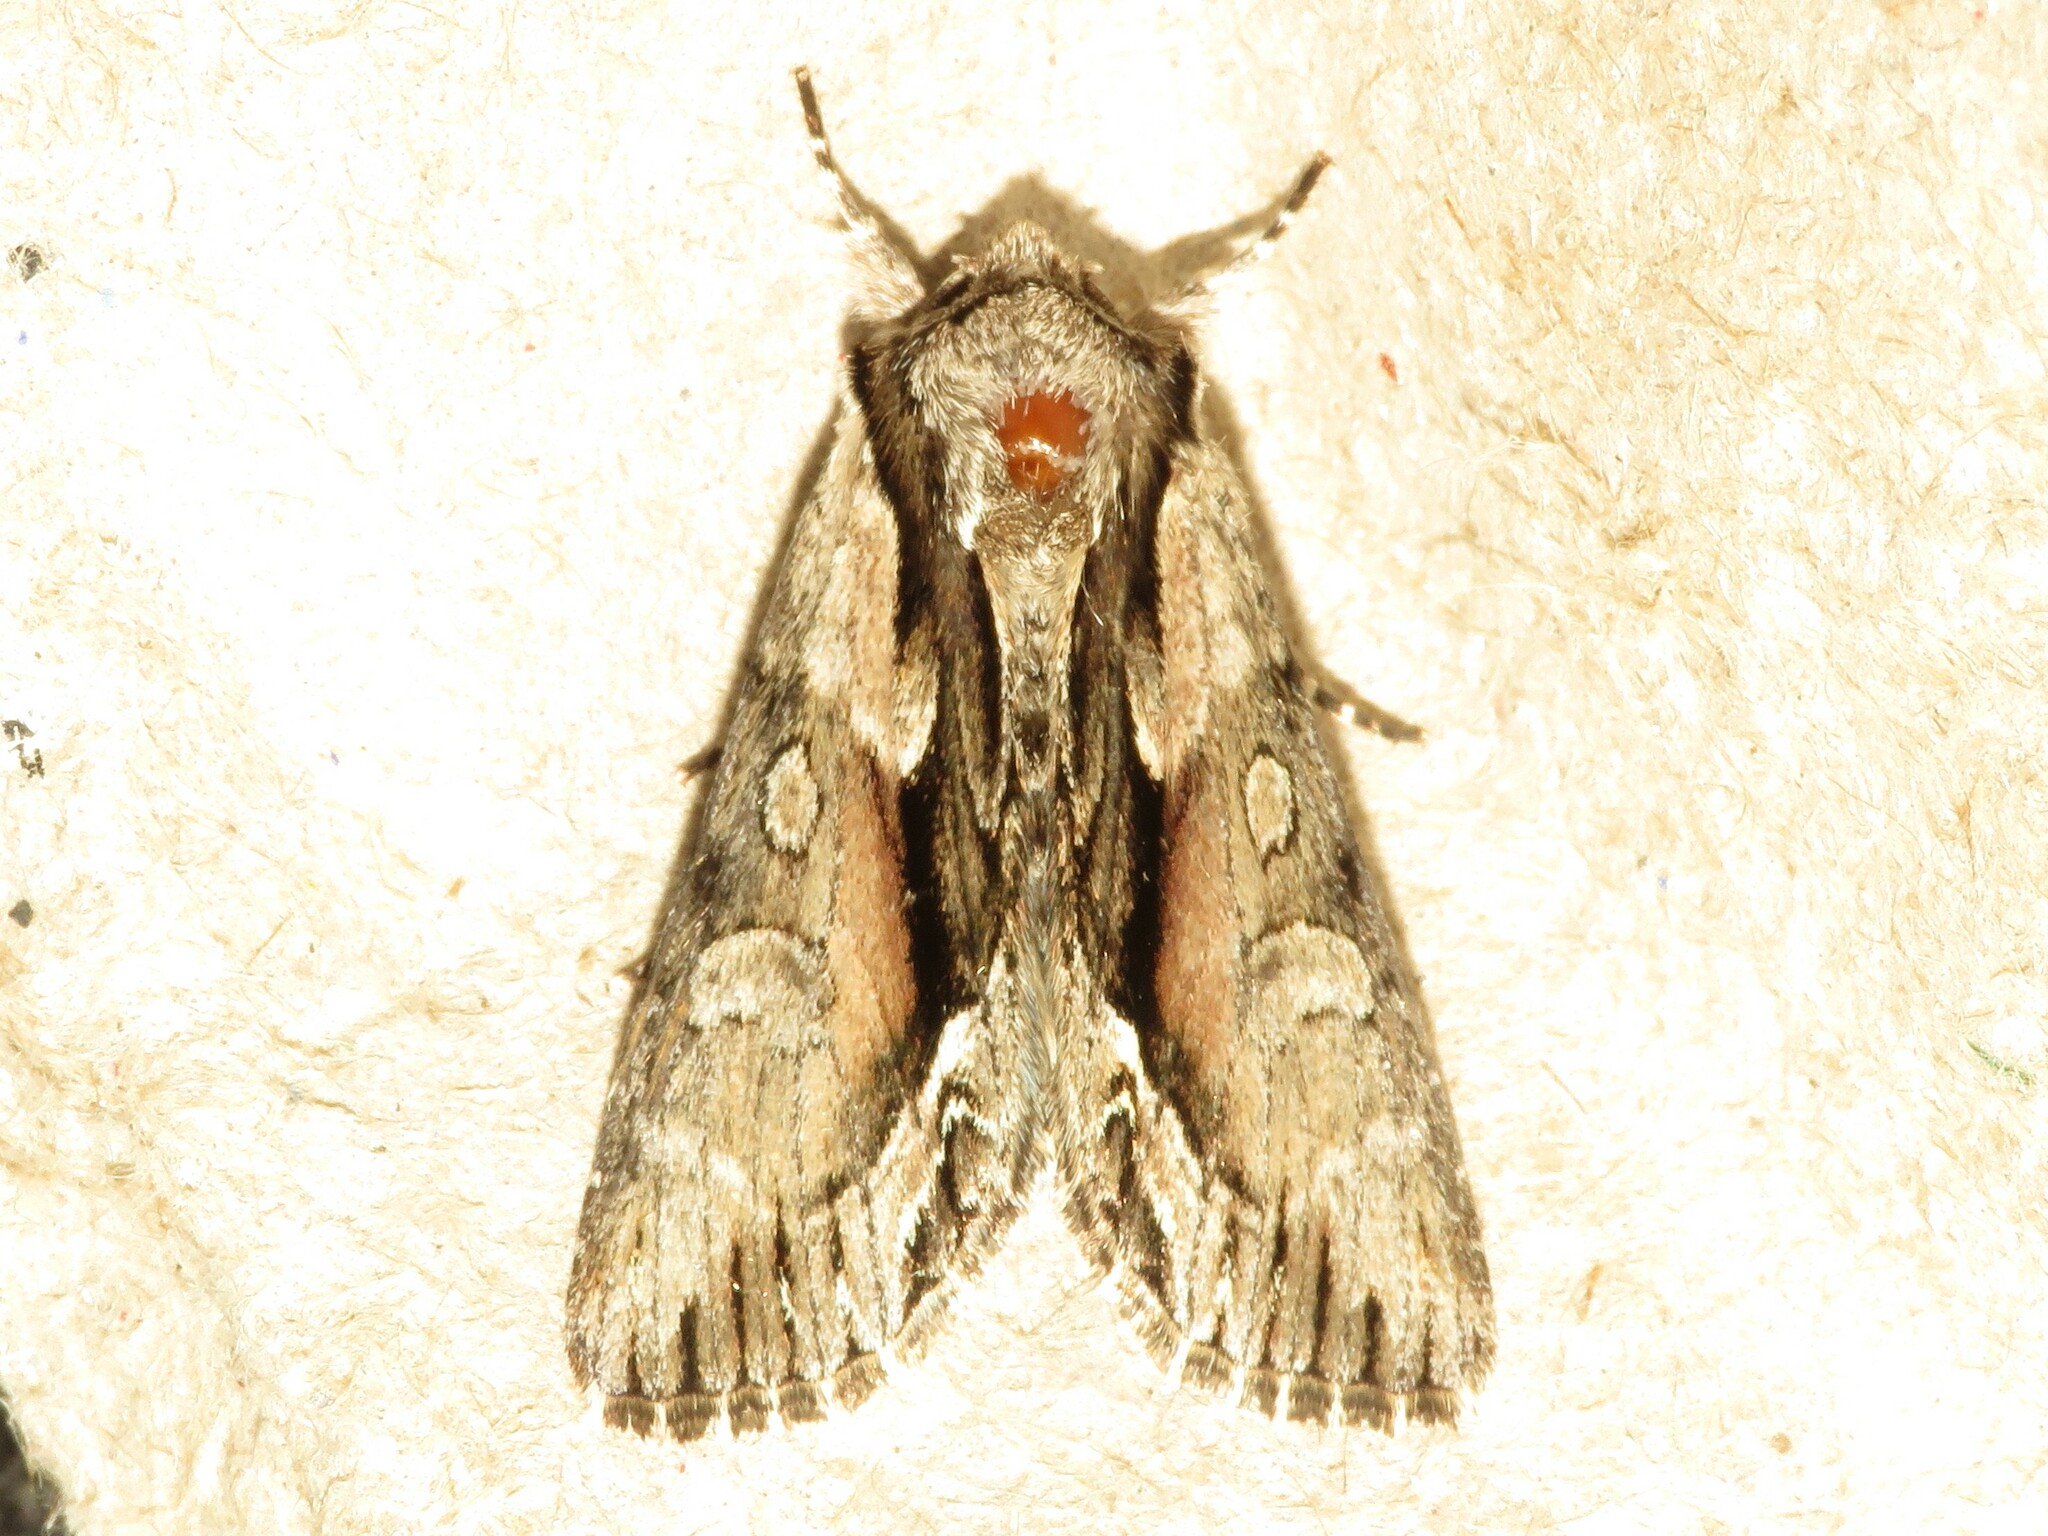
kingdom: Animalia
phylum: Arthropoda
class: Insecta
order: Lepidoptera
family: Noctuidae
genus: Hyppa
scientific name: Hyppa xylinoides
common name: Common hyppa moth
